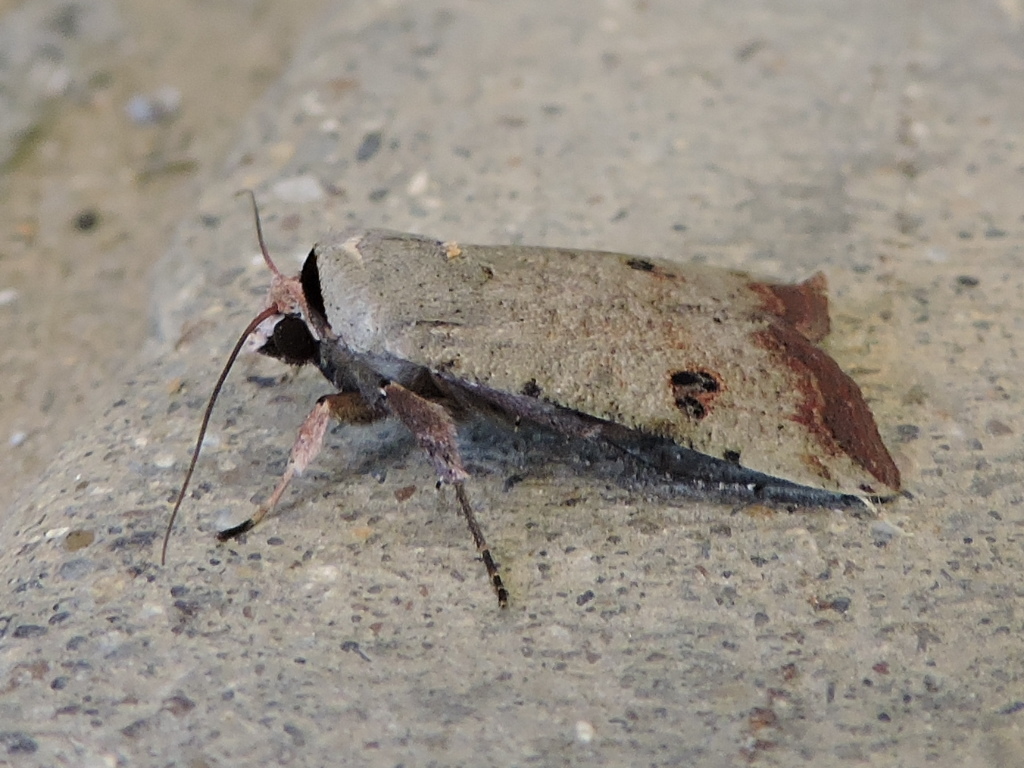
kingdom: Animalia
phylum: Arthropoda
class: Insecta
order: Lepidoptera
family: Noctuidae
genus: Anicla
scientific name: Anicla infecta
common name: Green cutworm
